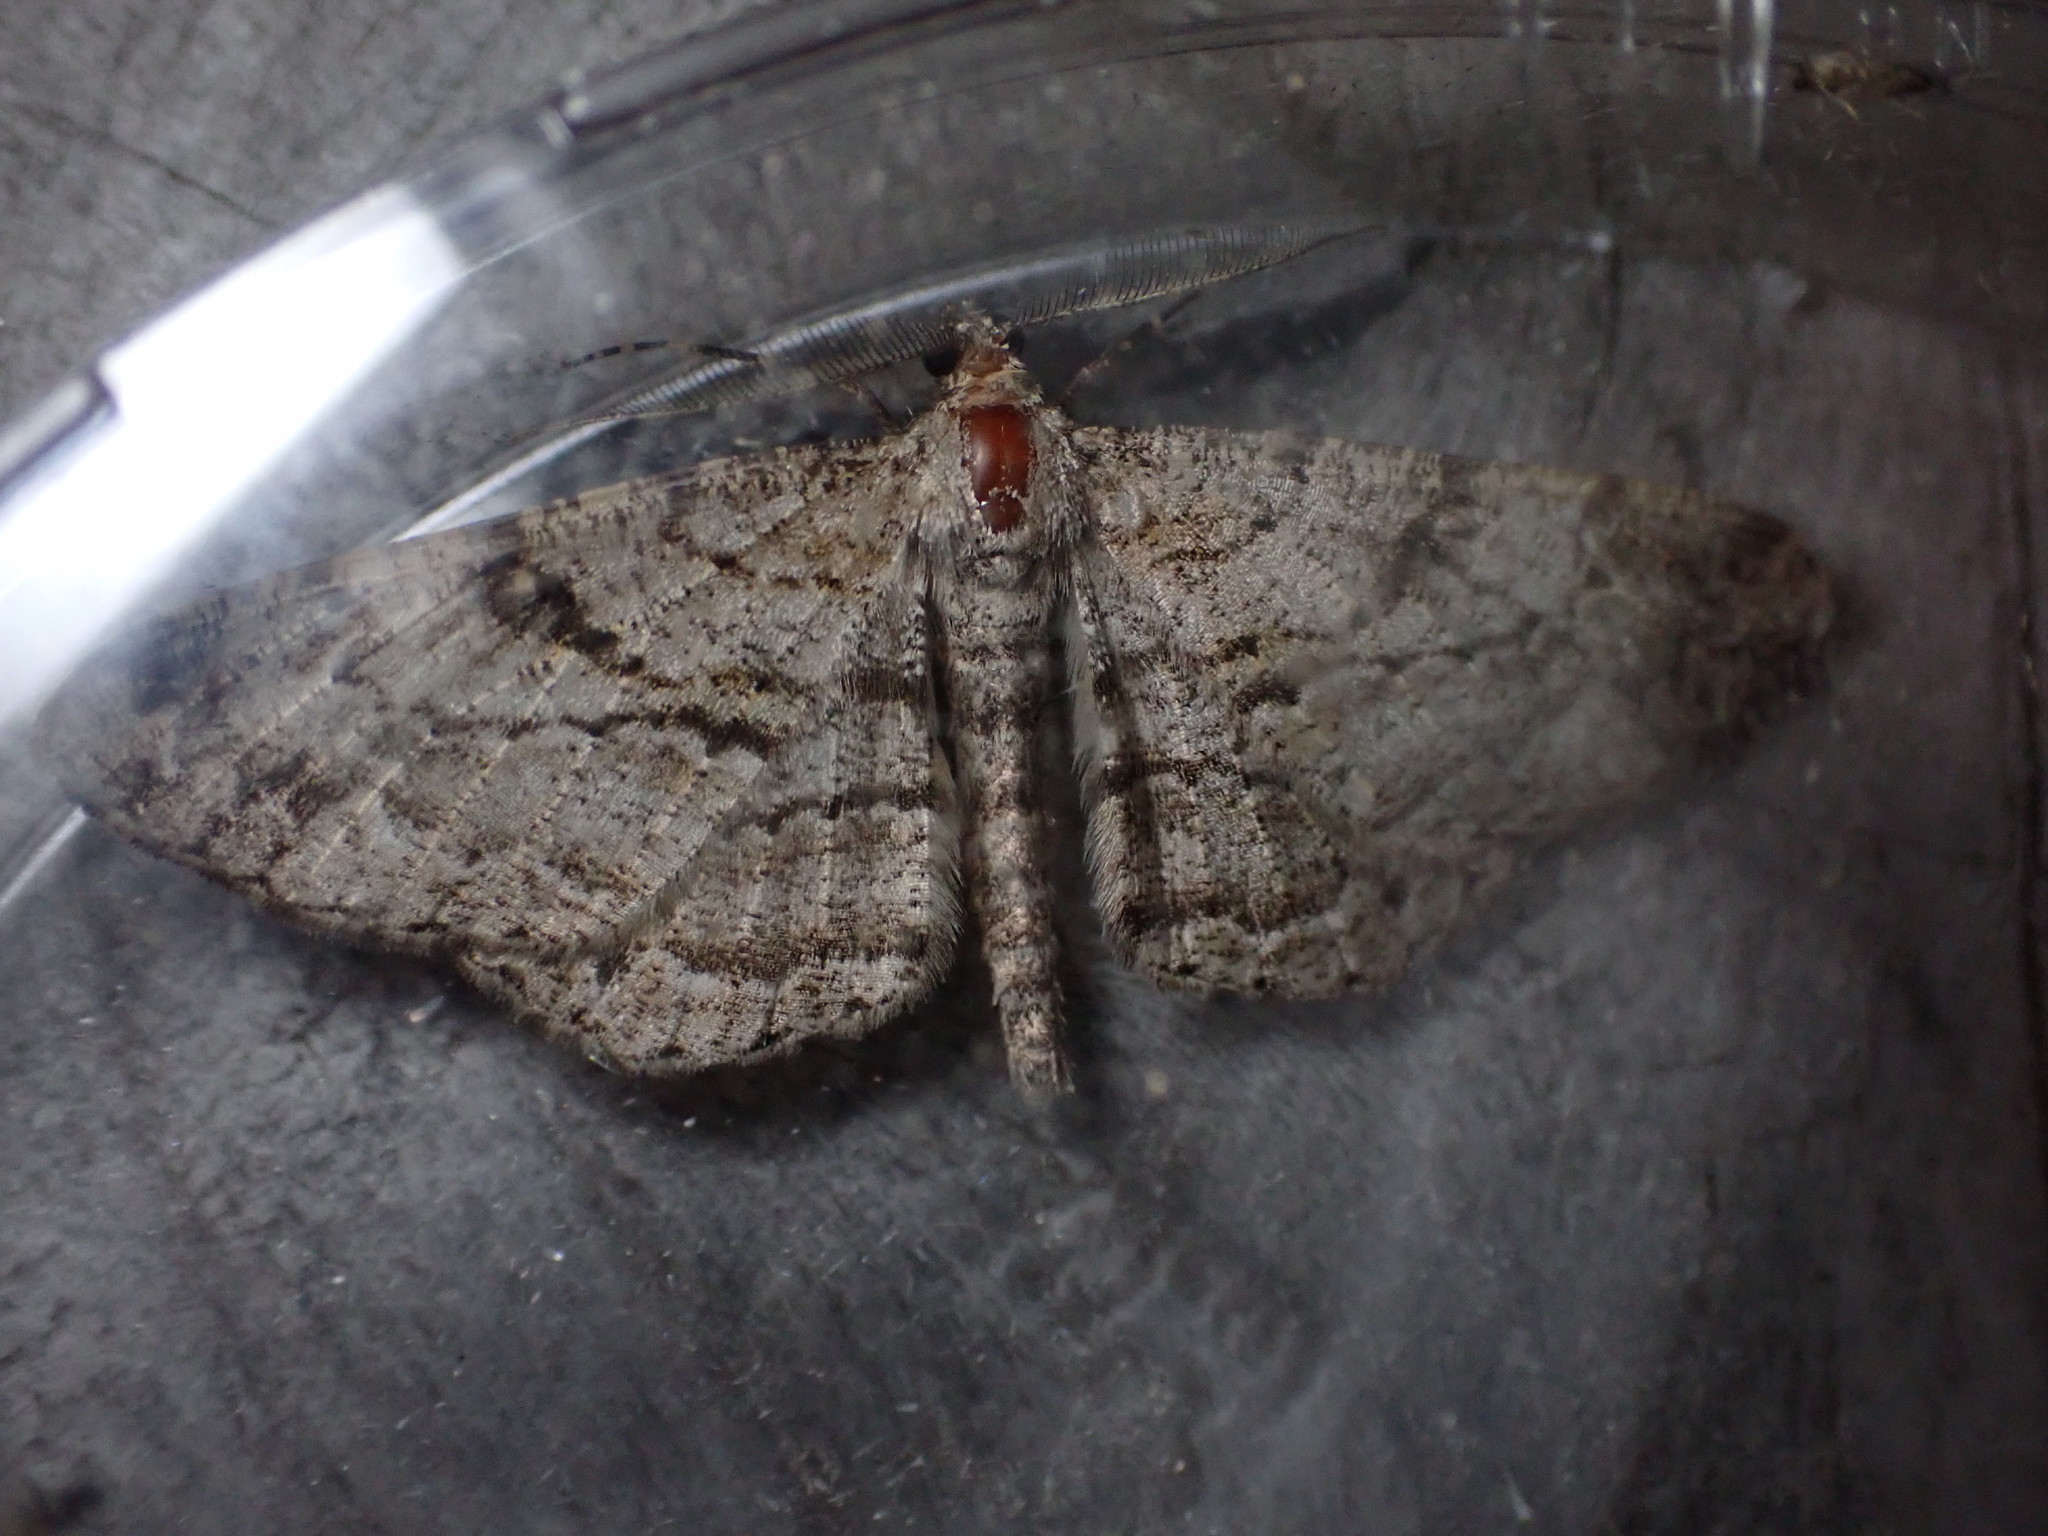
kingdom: Animalia
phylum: Arthropoda
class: Insecta
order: Lepidoptera
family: Geometridae
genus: Peribatodes
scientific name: Peribatodes rhomboidaria
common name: Willow beauty
